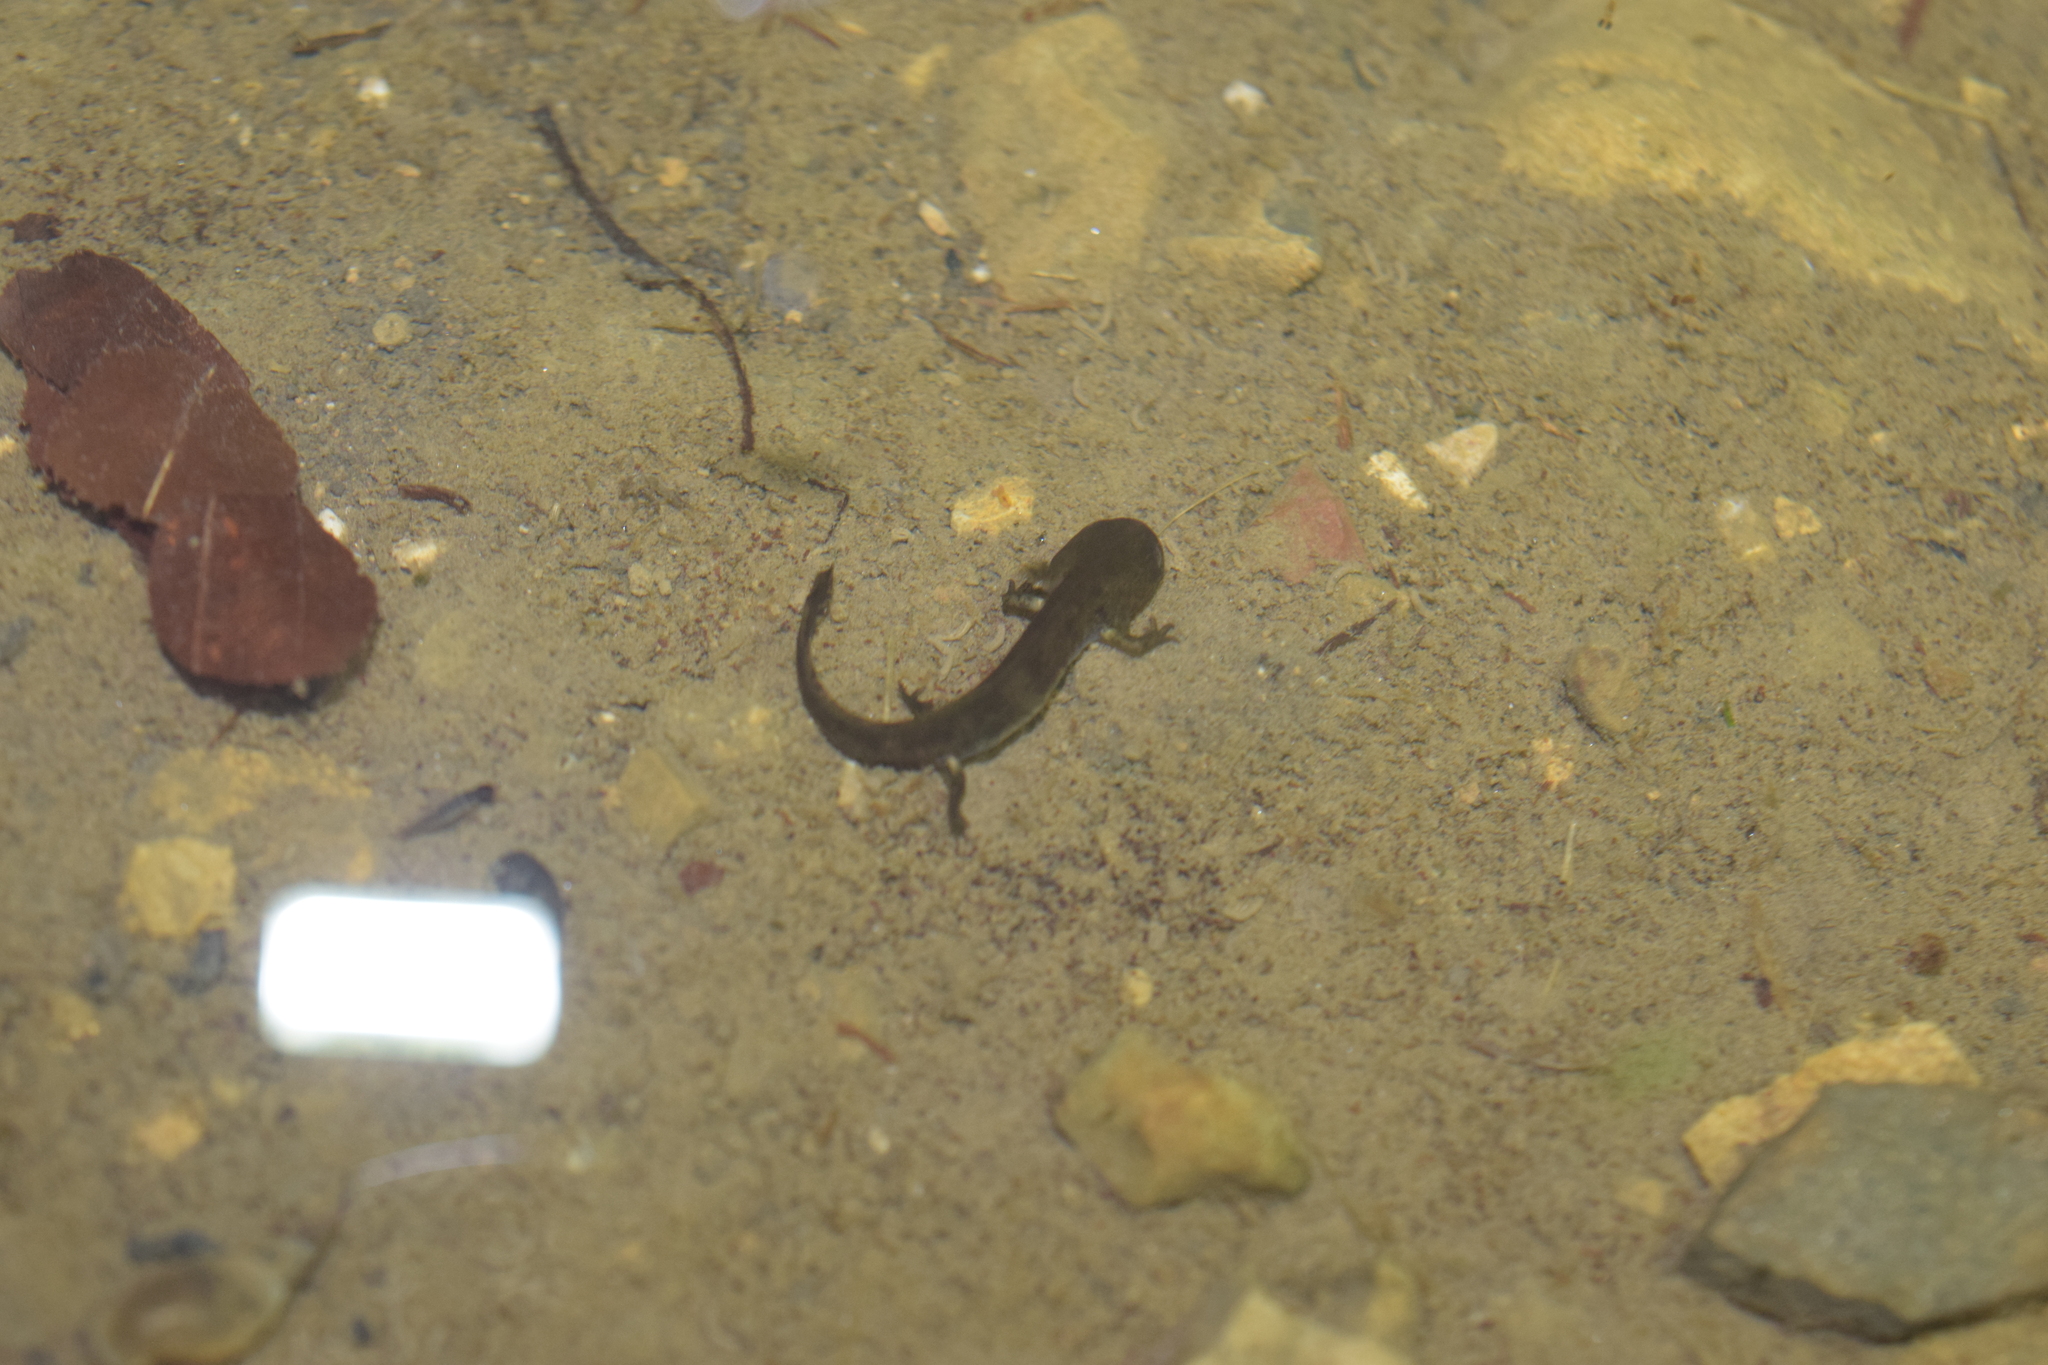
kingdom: Animalia
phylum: Chordata
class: Amphibia
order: Caudata
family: Salamandridae
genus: Salamandra
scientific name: Salamandra salamandra
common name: Fire salamander
